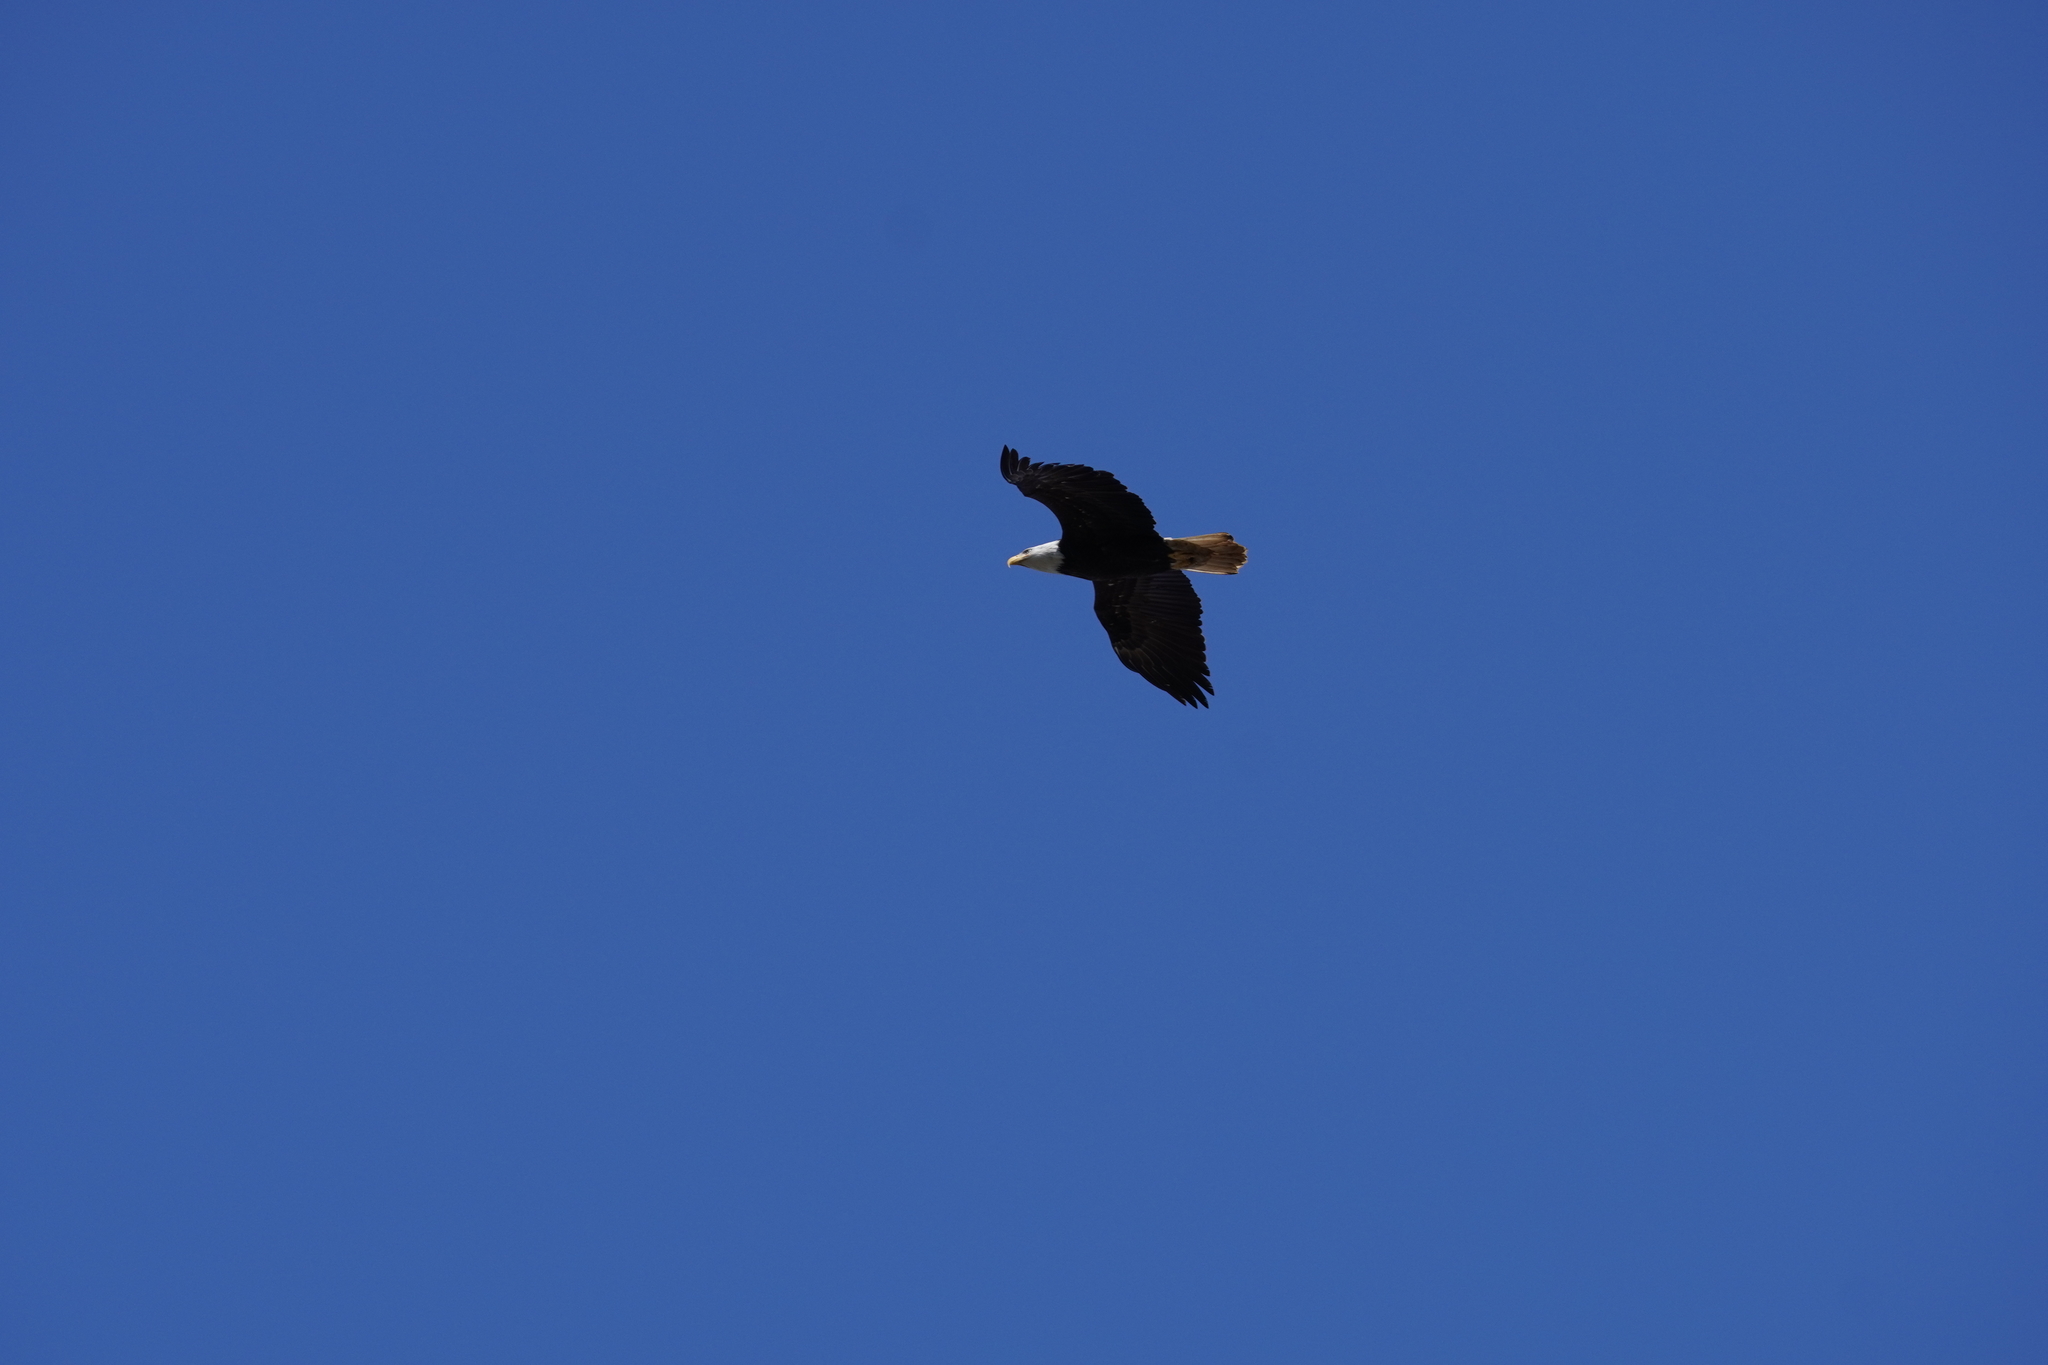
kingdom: Animalia
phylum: Chordata
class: Aves
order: Accipitriformes
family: Accipitridae
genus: Haliaeetus
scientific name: Haliaeetus leucocephalus
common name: Bald eagle
